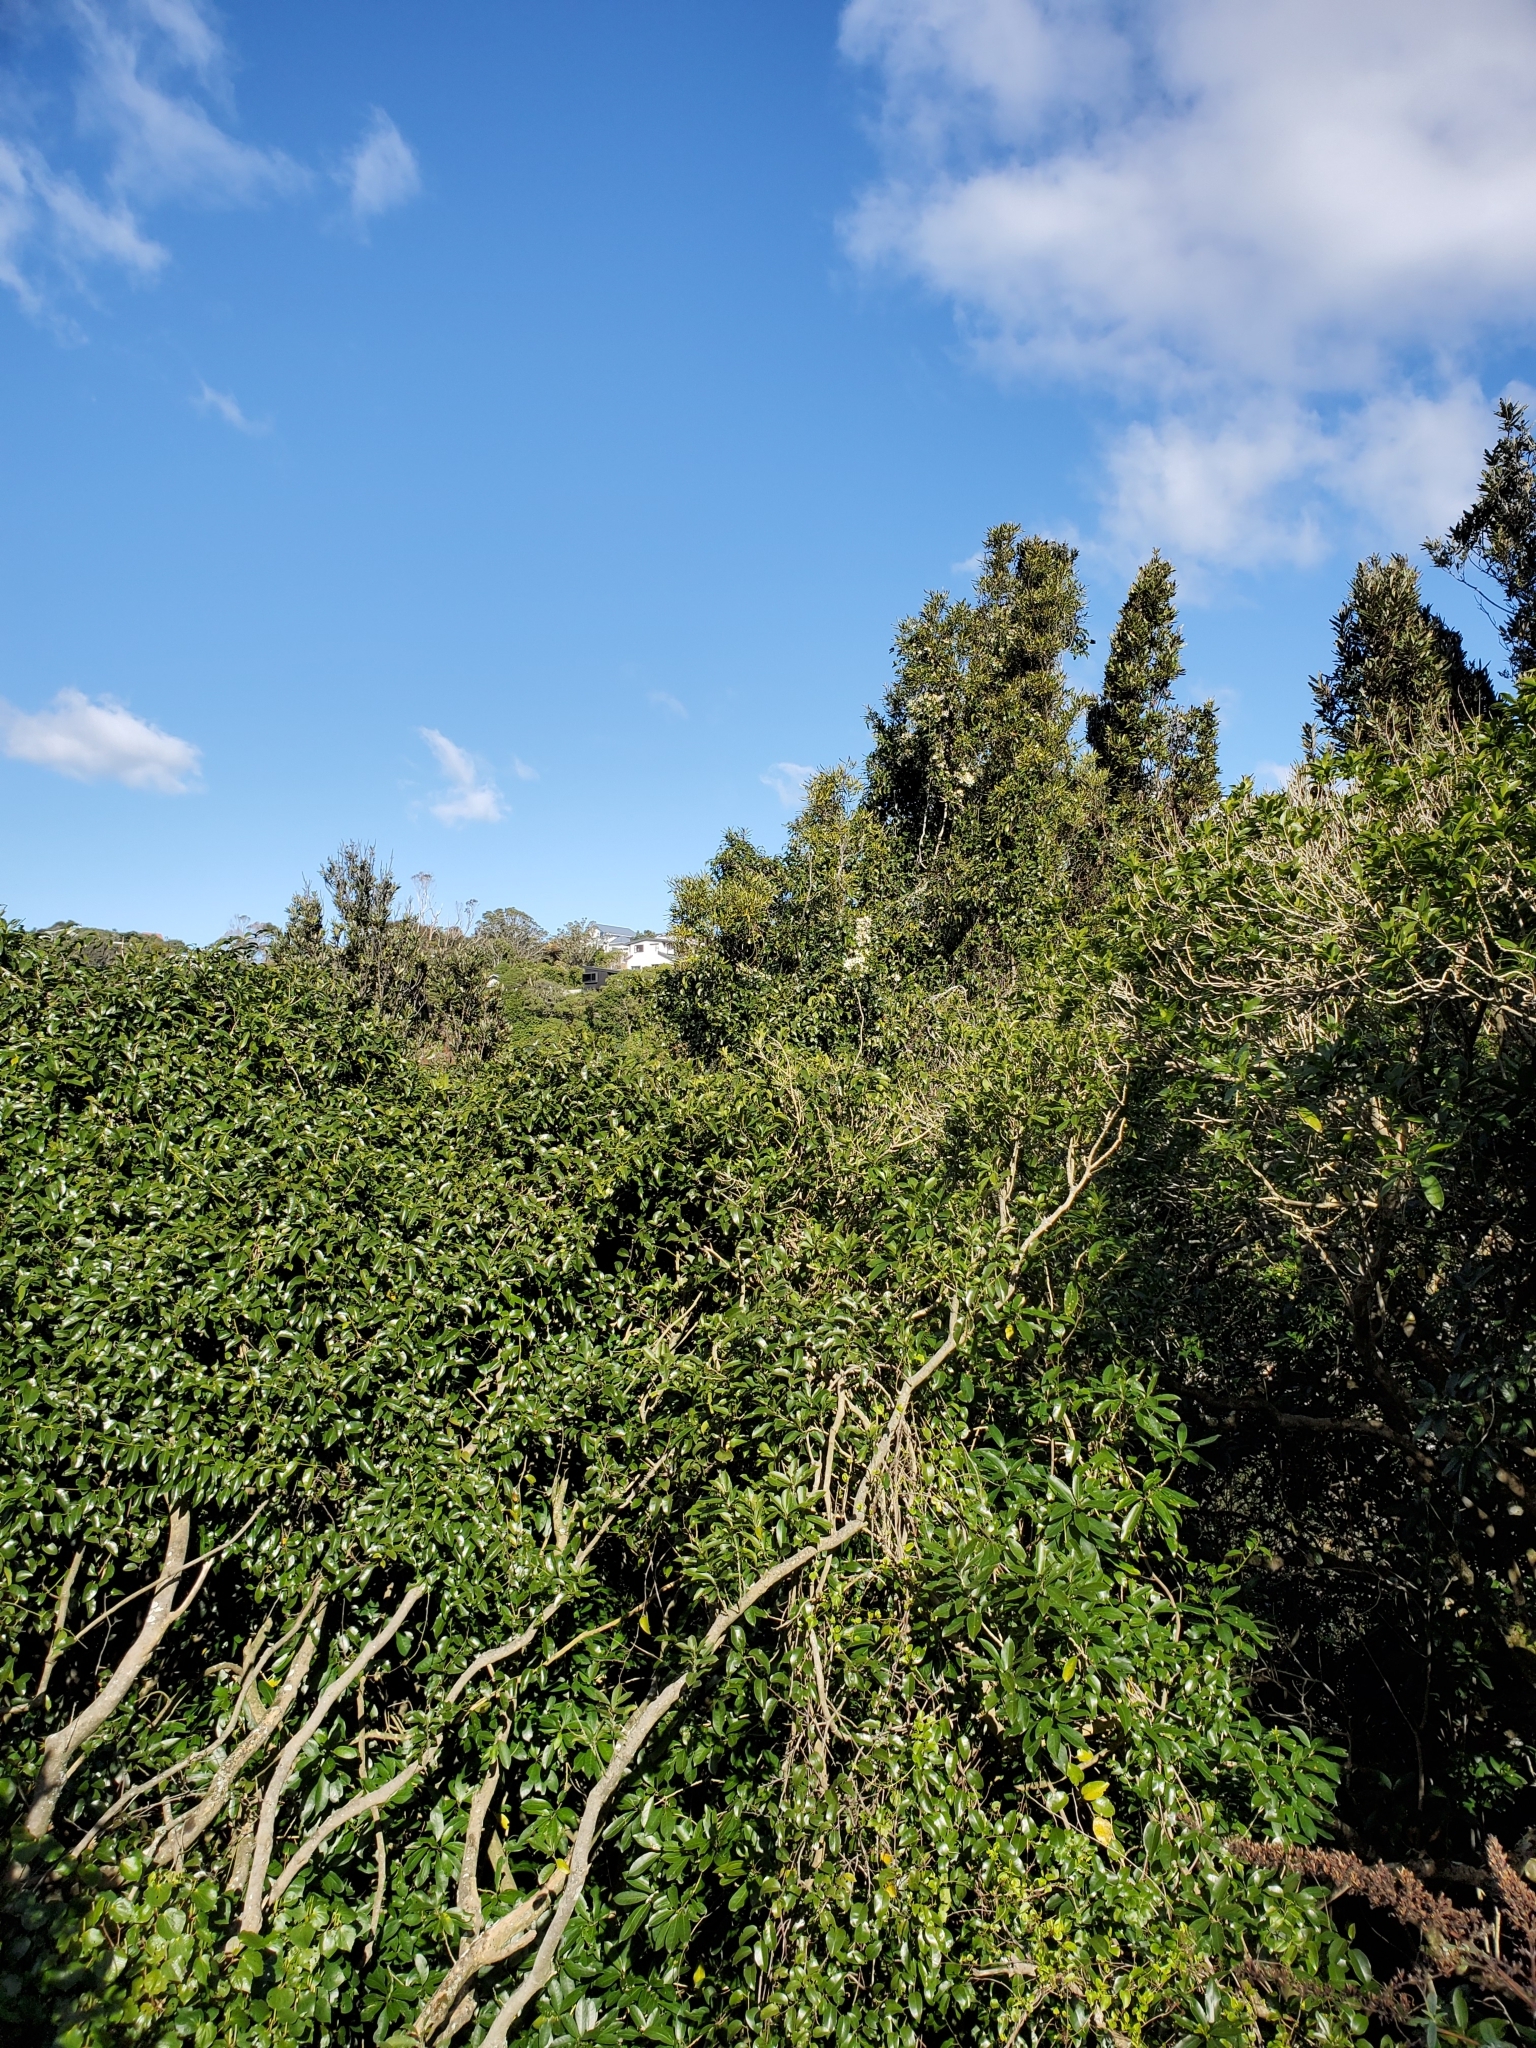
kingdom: Plantae
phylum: Tracheophyta
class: Magnoliopsida
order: Ranunculales
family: Ranunculaceae
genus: Clematis
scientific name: Clematis paniculata
